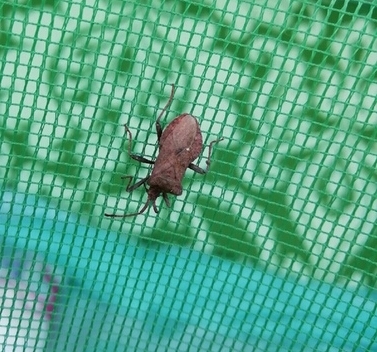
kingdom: Animalia
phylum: Arthropoda
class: Insecta
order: Hemiptera
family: Coreidae
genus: Coreus
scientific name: Coreus marginatus
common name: Dock bug
